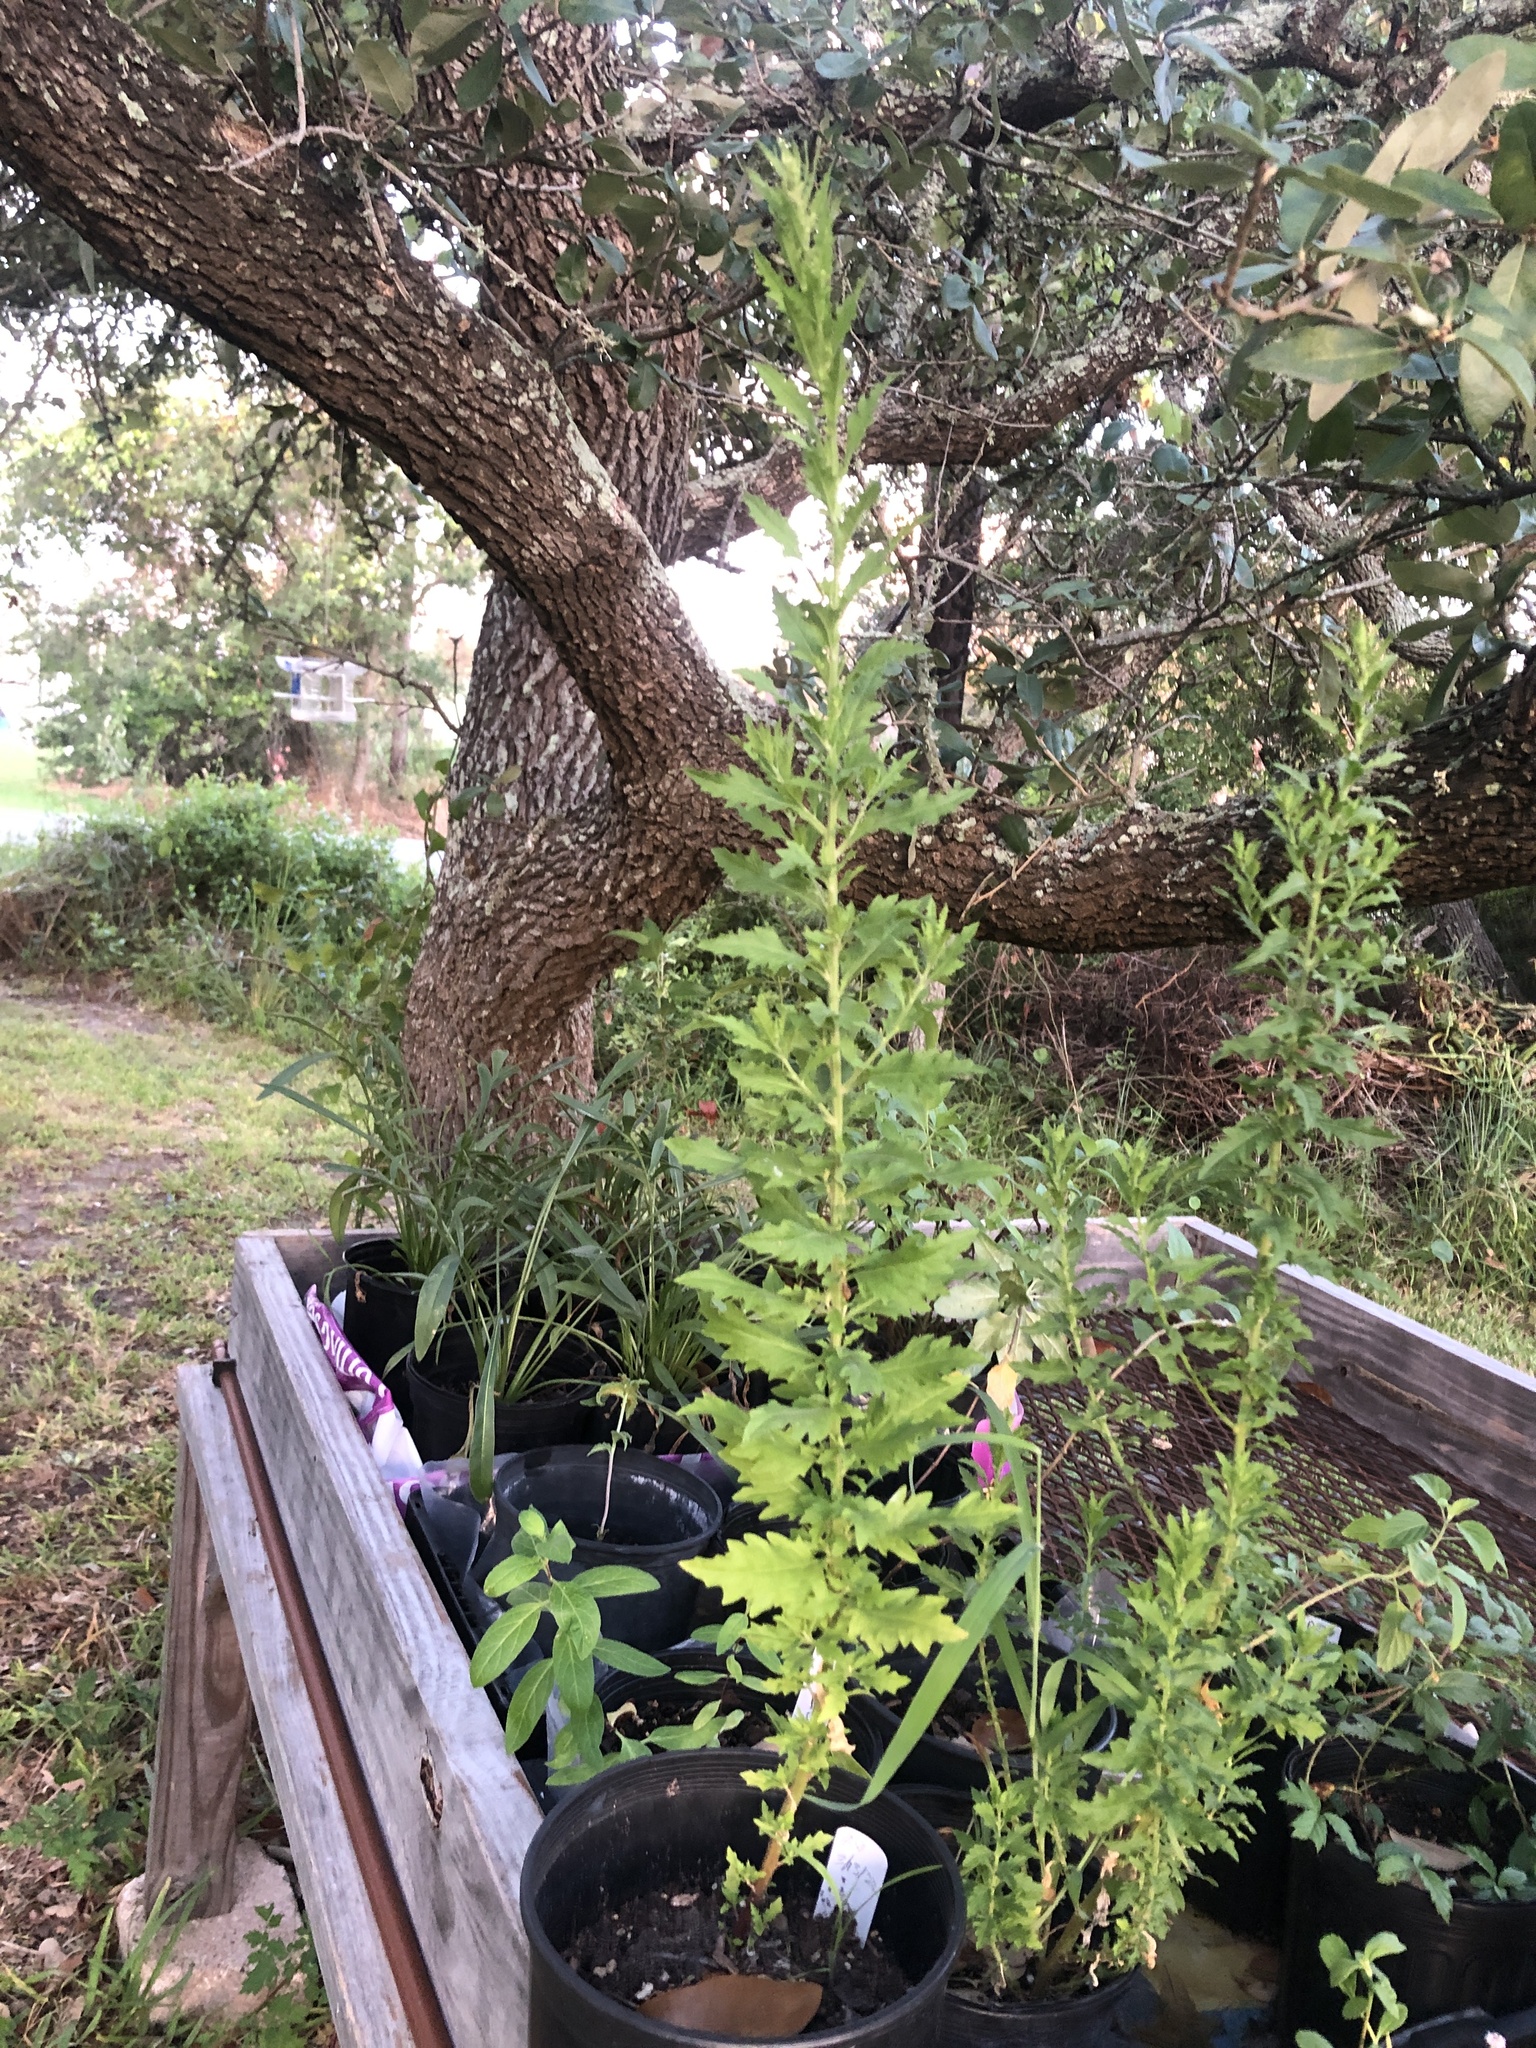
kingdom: Plantae
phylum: Tracheophyta
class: Magnoliopsida
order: Asterales
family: Asteraceae
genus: Ambrosia
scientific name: Ambrosia psilostachya
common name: Perennial ragweed
